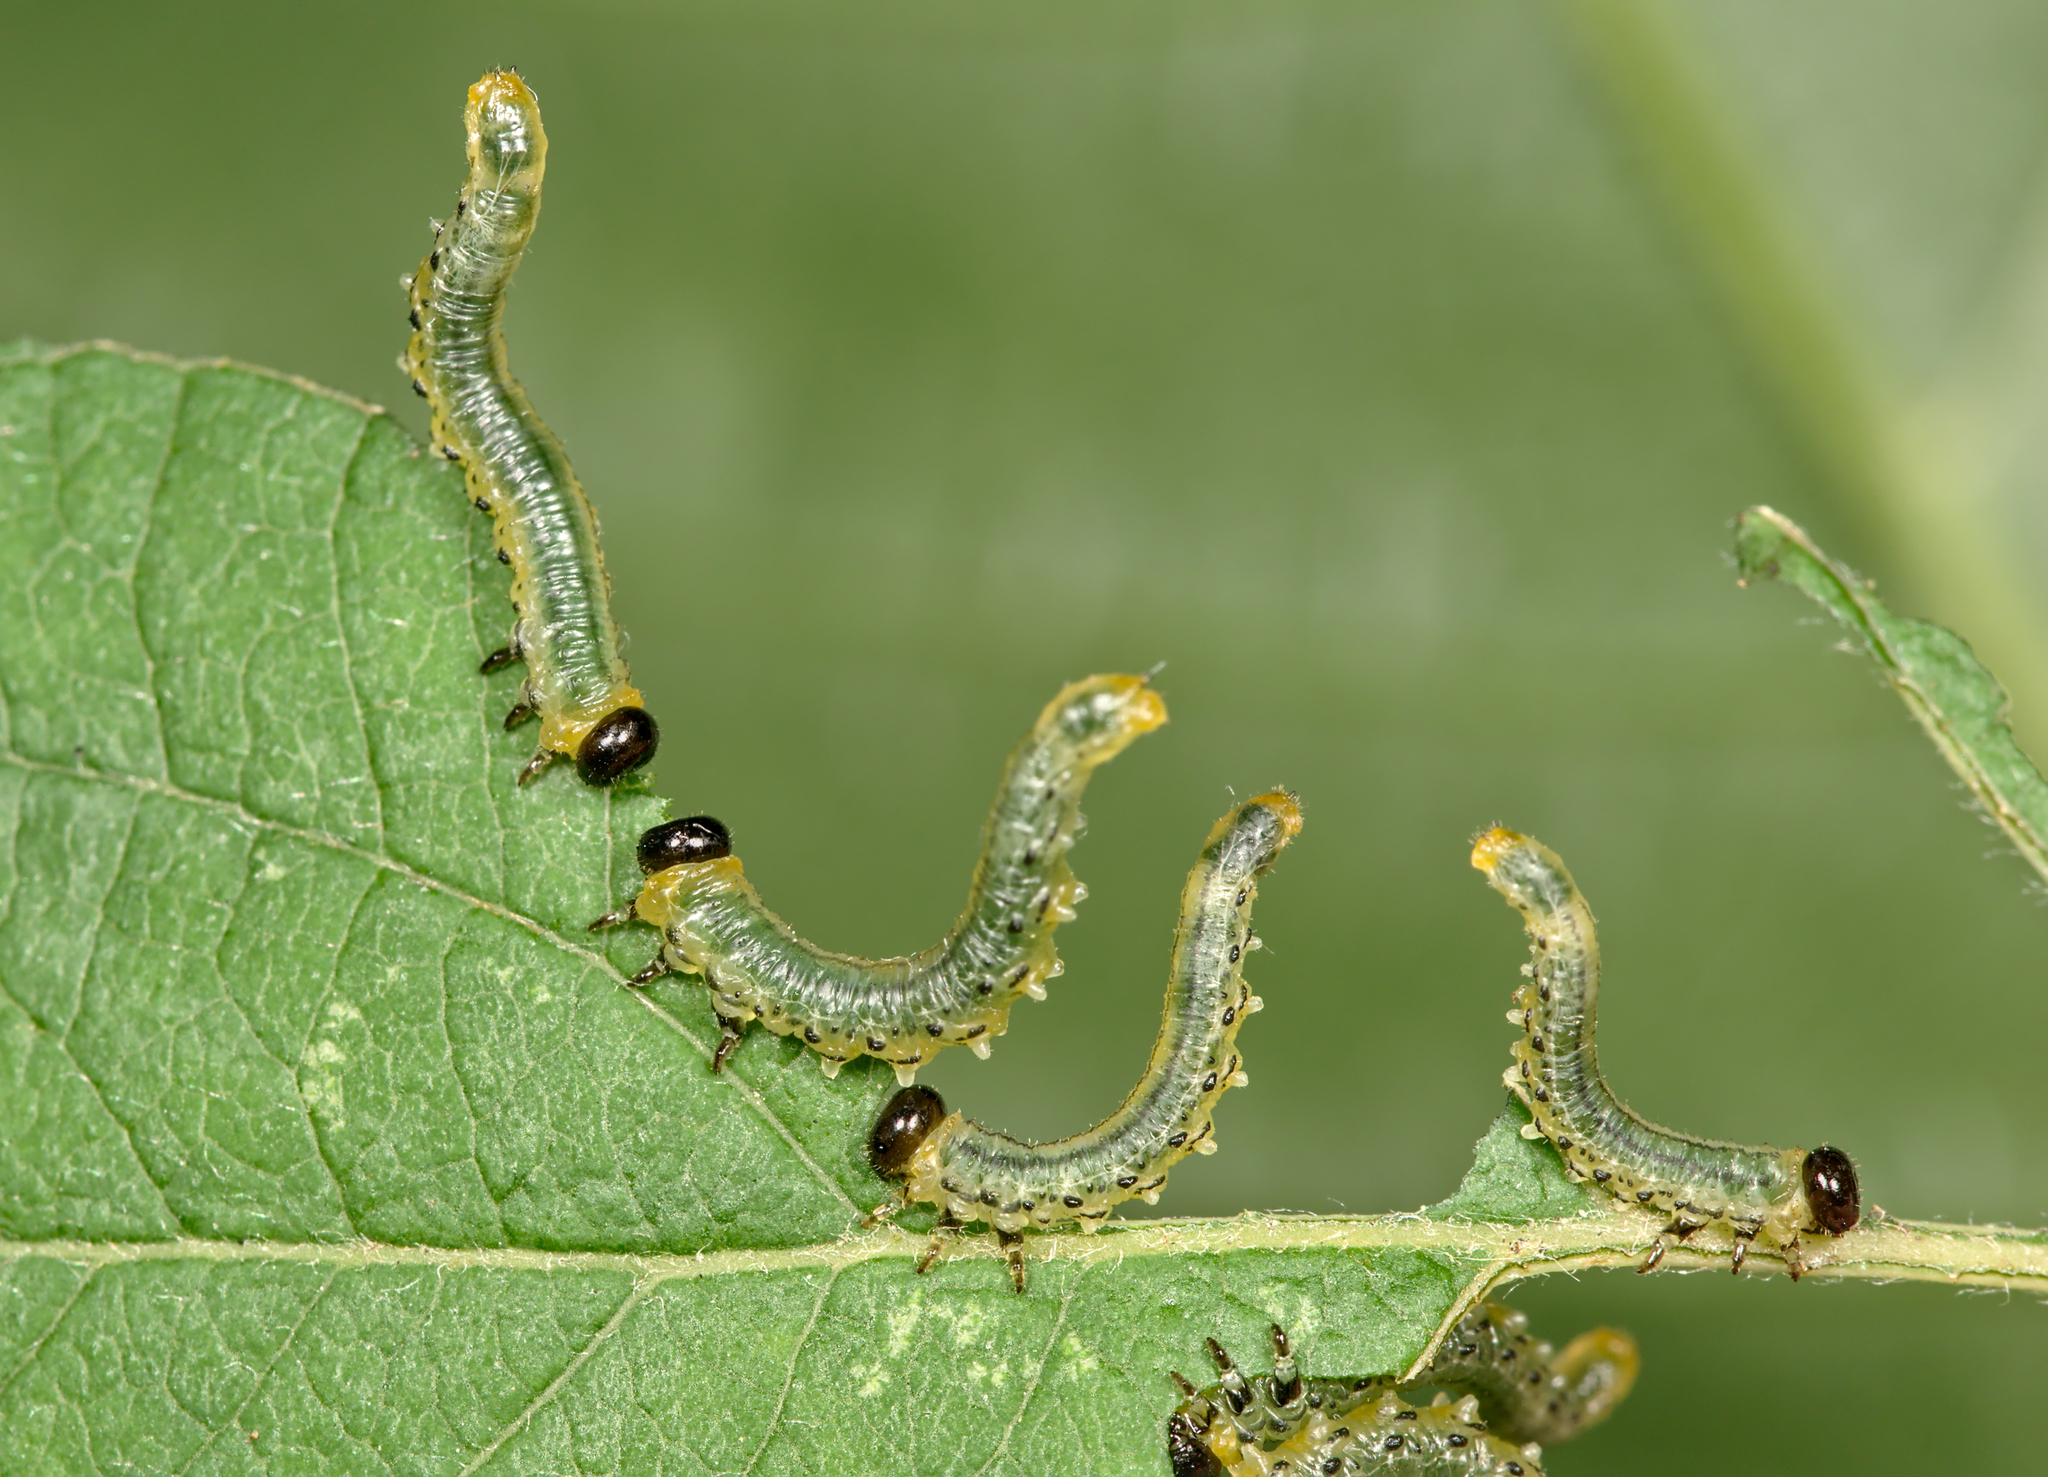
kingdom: Animalia
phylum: Arthropoda
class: Insecta
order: Hymenoptera
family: Tenthredinidae
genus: Nematus
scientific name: Nematus pavidus
